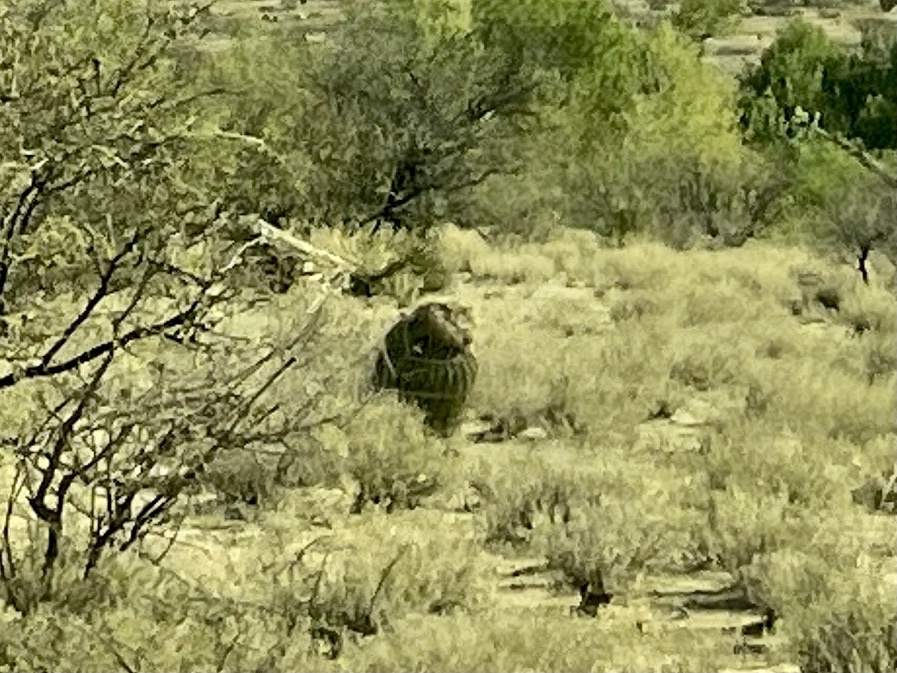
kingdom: Plantae
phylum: Tracheophyta
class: Magnoliopsida
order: Caryophyllales
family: Cactaceae
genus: Ferocactus
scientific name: Ferocactus wislizeni
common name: Candy barrel cactus
